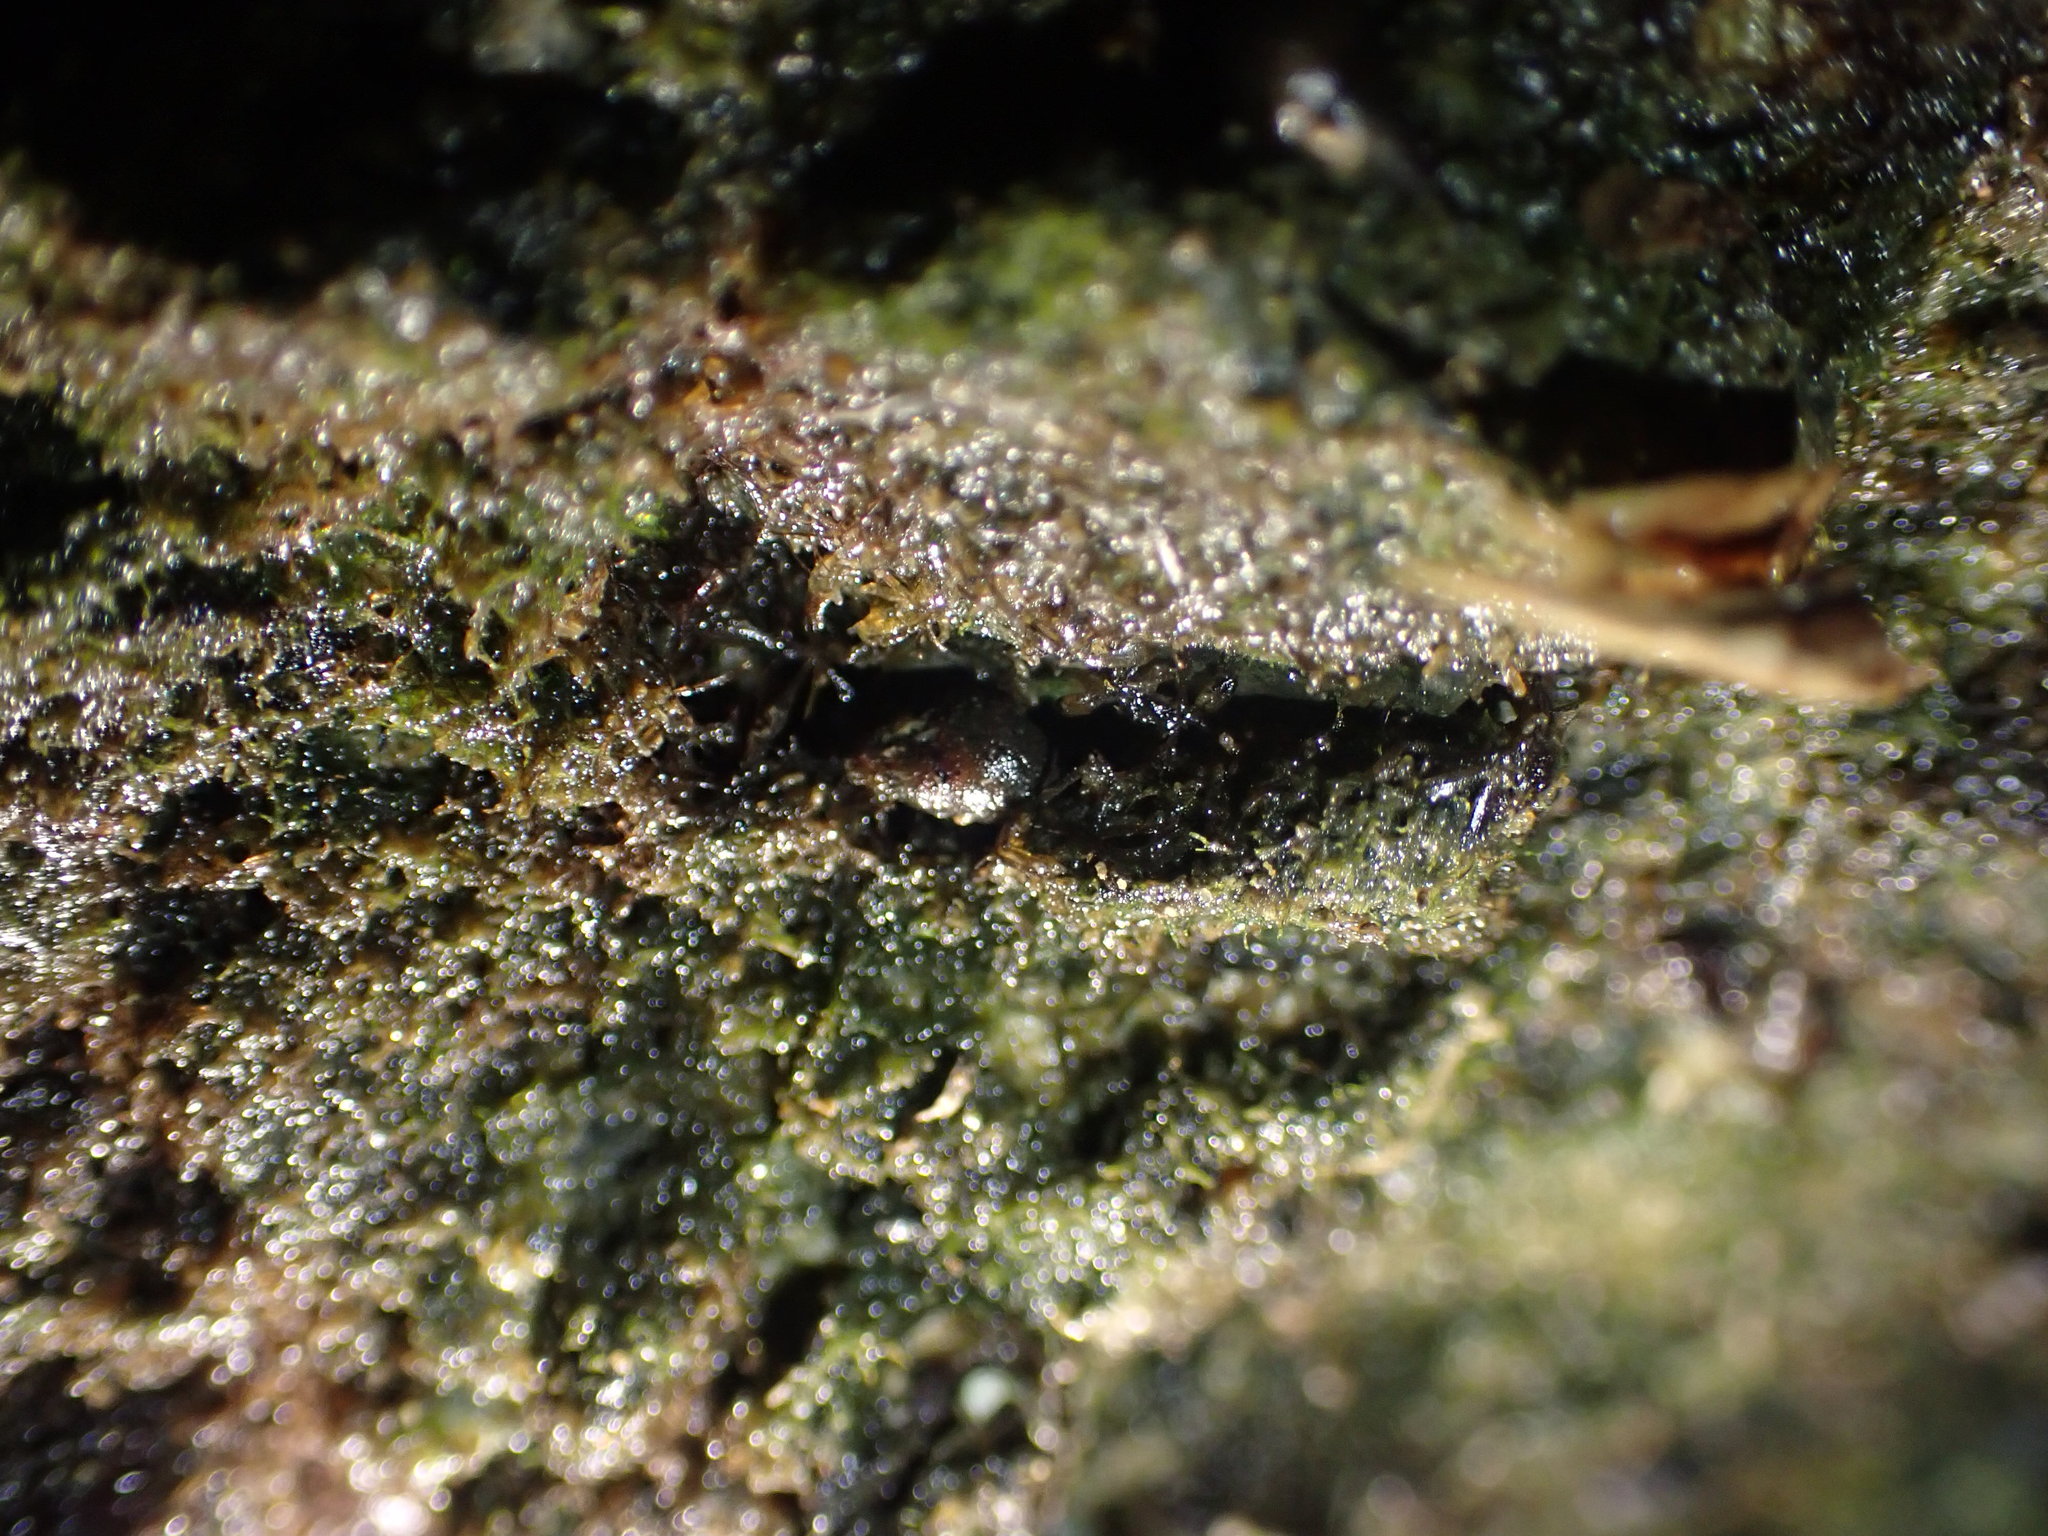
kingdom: Animalia
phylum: Mollusca
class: Gastropoda
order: Littorinimorpha
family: Tateidae
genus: Potamopyrgus
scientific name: Potamopyrgus estuarinus
